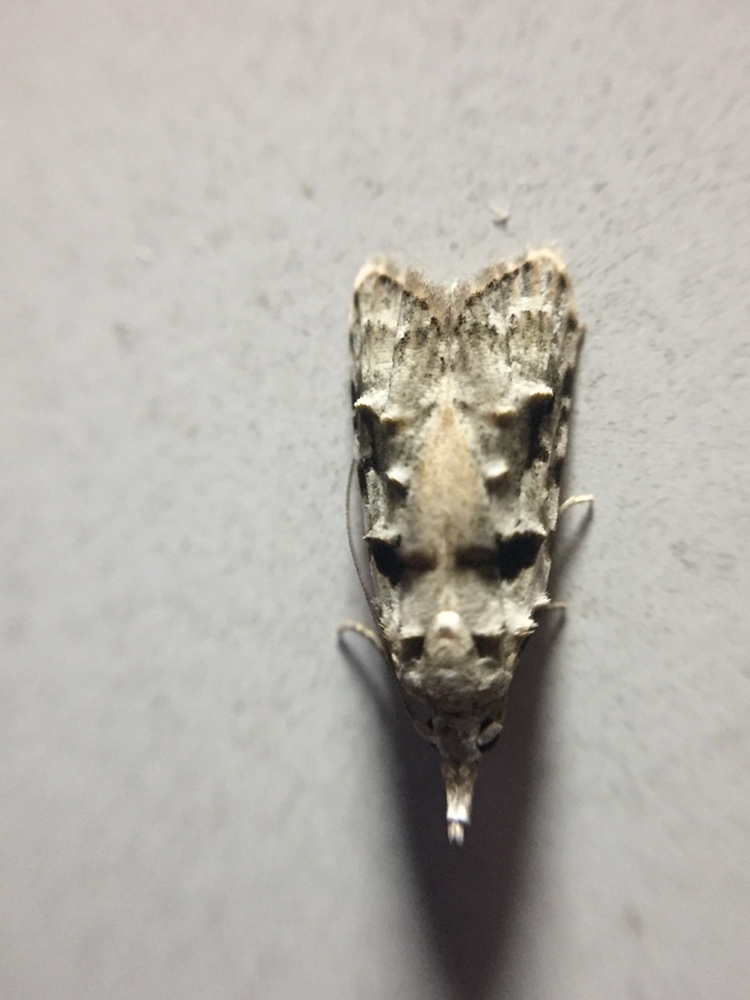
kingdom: Animalia
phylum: Arthropoda
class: Insecta
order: Lepidoptera
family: Carposinidae
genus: Coscinoptycha
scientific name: Coscinoptycha improbana
